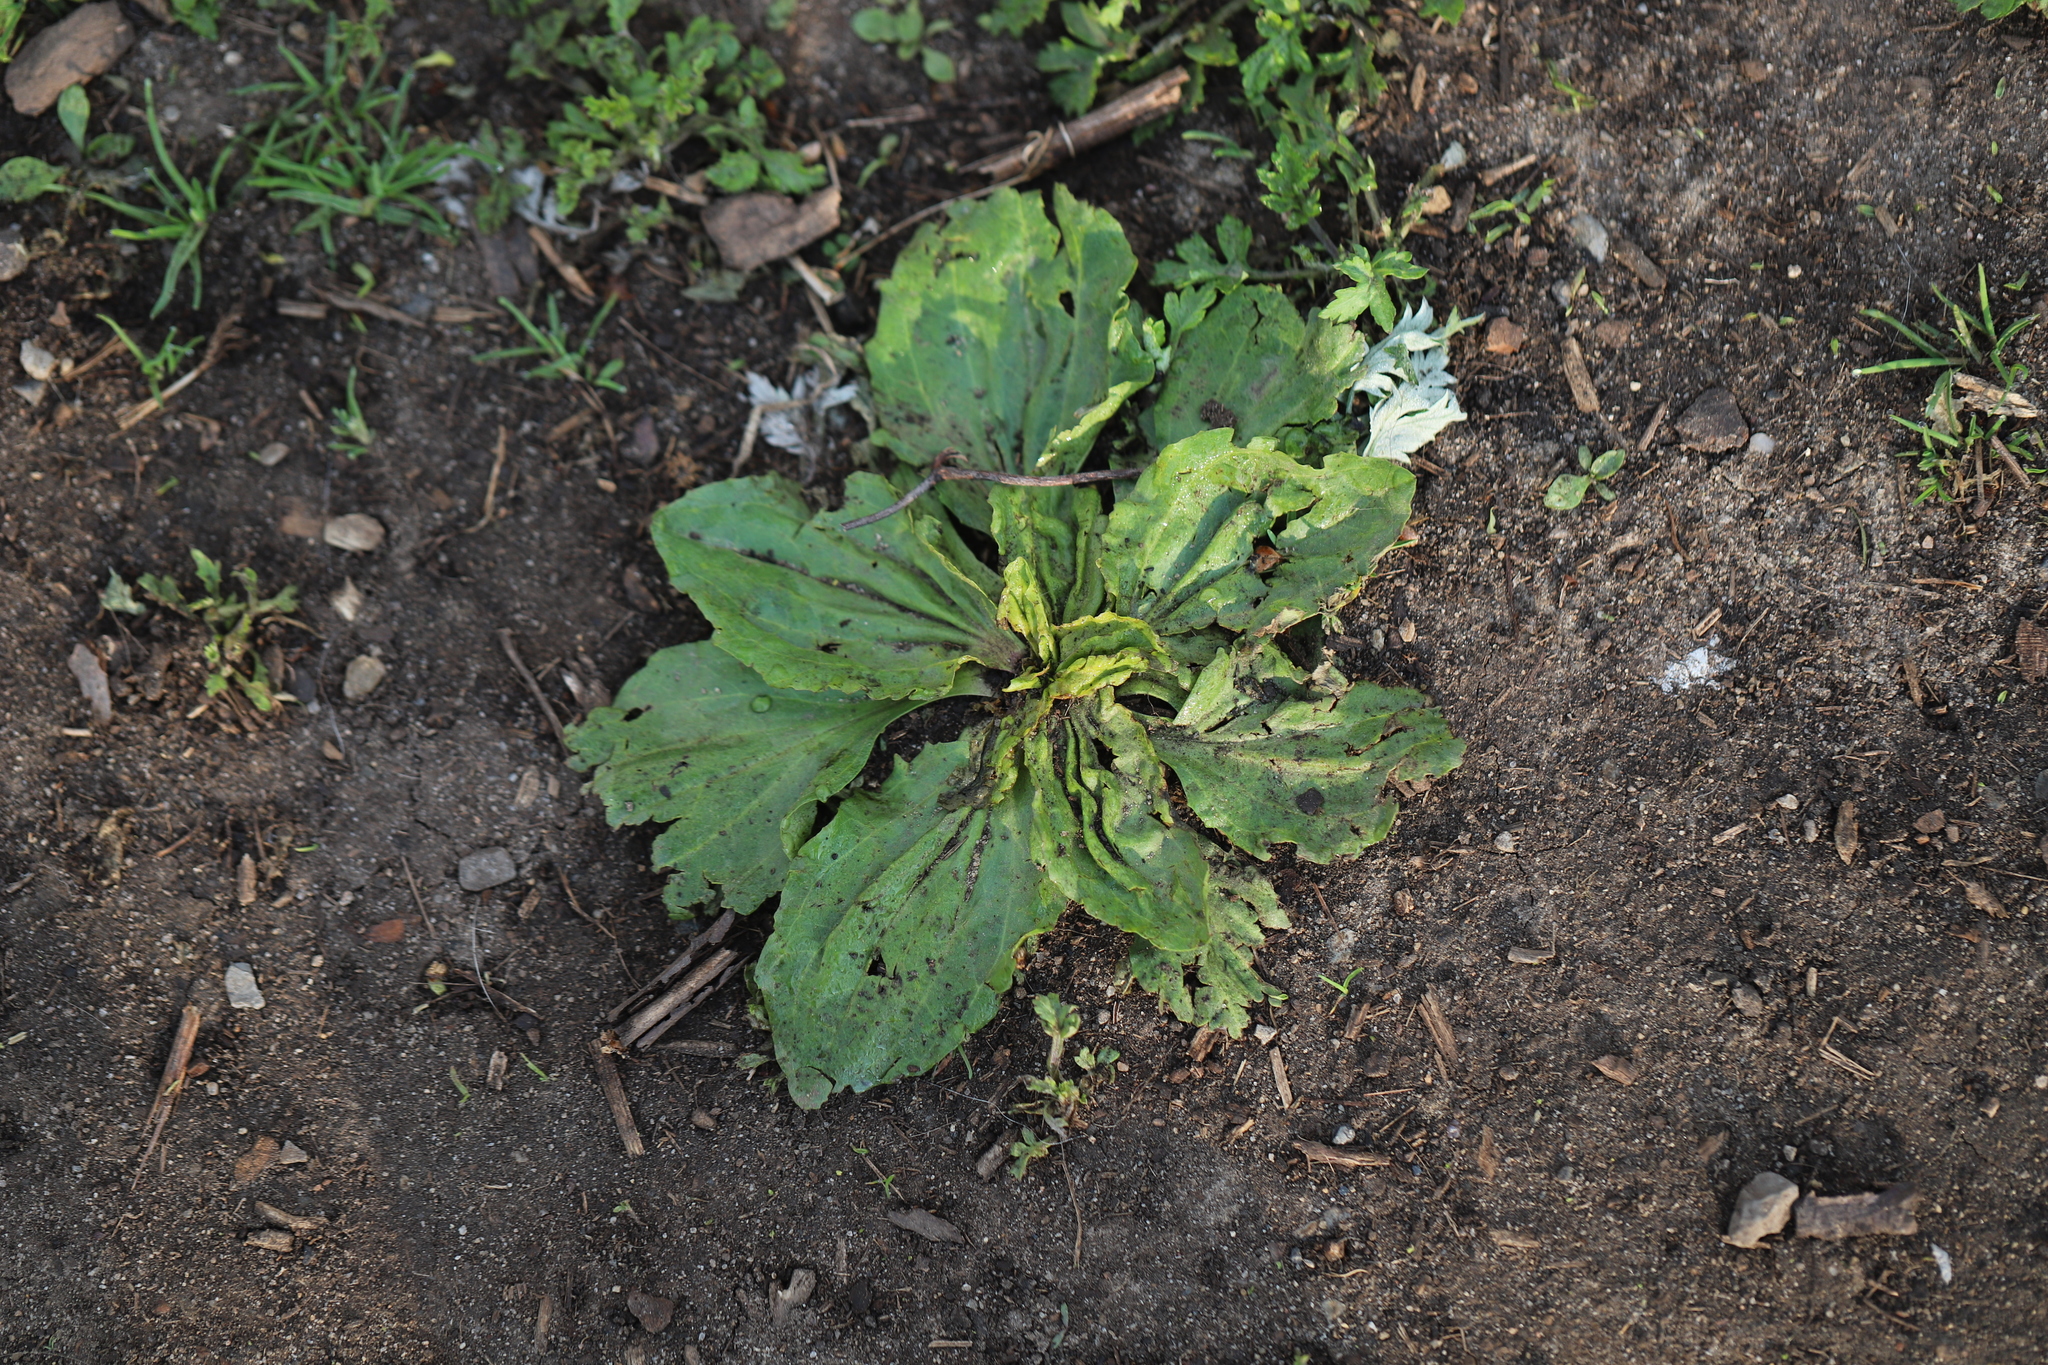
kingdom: Plantae
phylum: Tracheophyta
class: Magnoliopsida
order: Lamiales
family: Plantaginaceae
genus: Plantago
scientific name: Plantago rugelii
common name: American plantain
